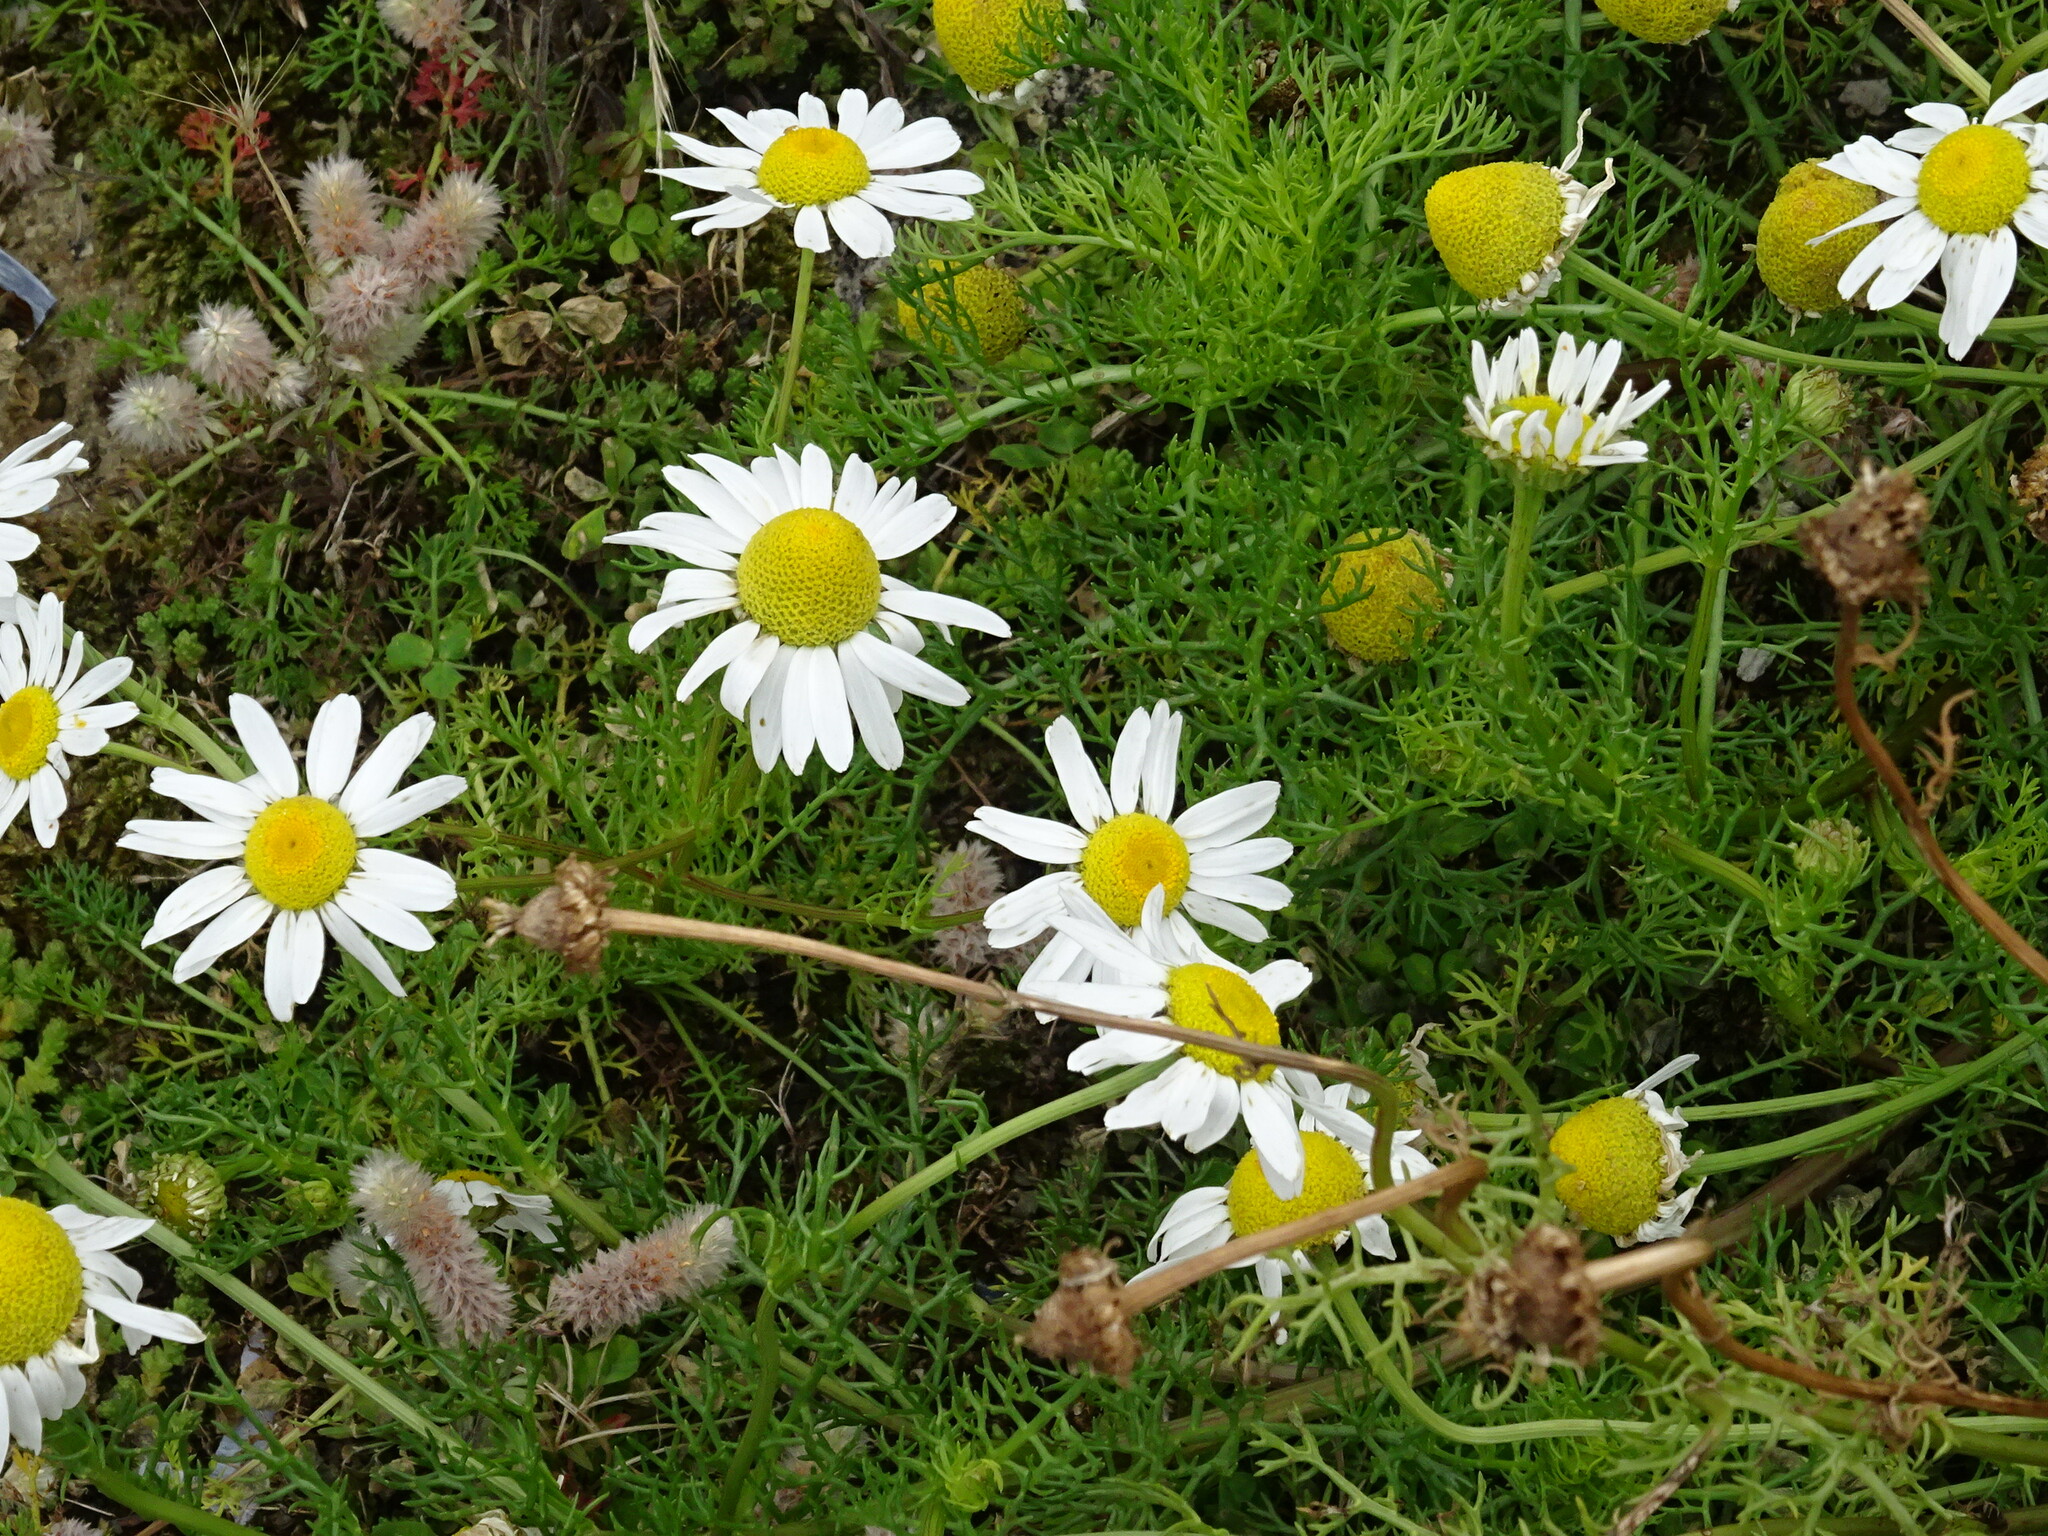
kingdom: Plantae
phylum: Tracheophyta
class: Magnoliopsida
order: Asterales
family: Asteraceae
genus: Tripleurospermum
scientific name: Tripleurospermum maritimum
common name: Sea mayweed
